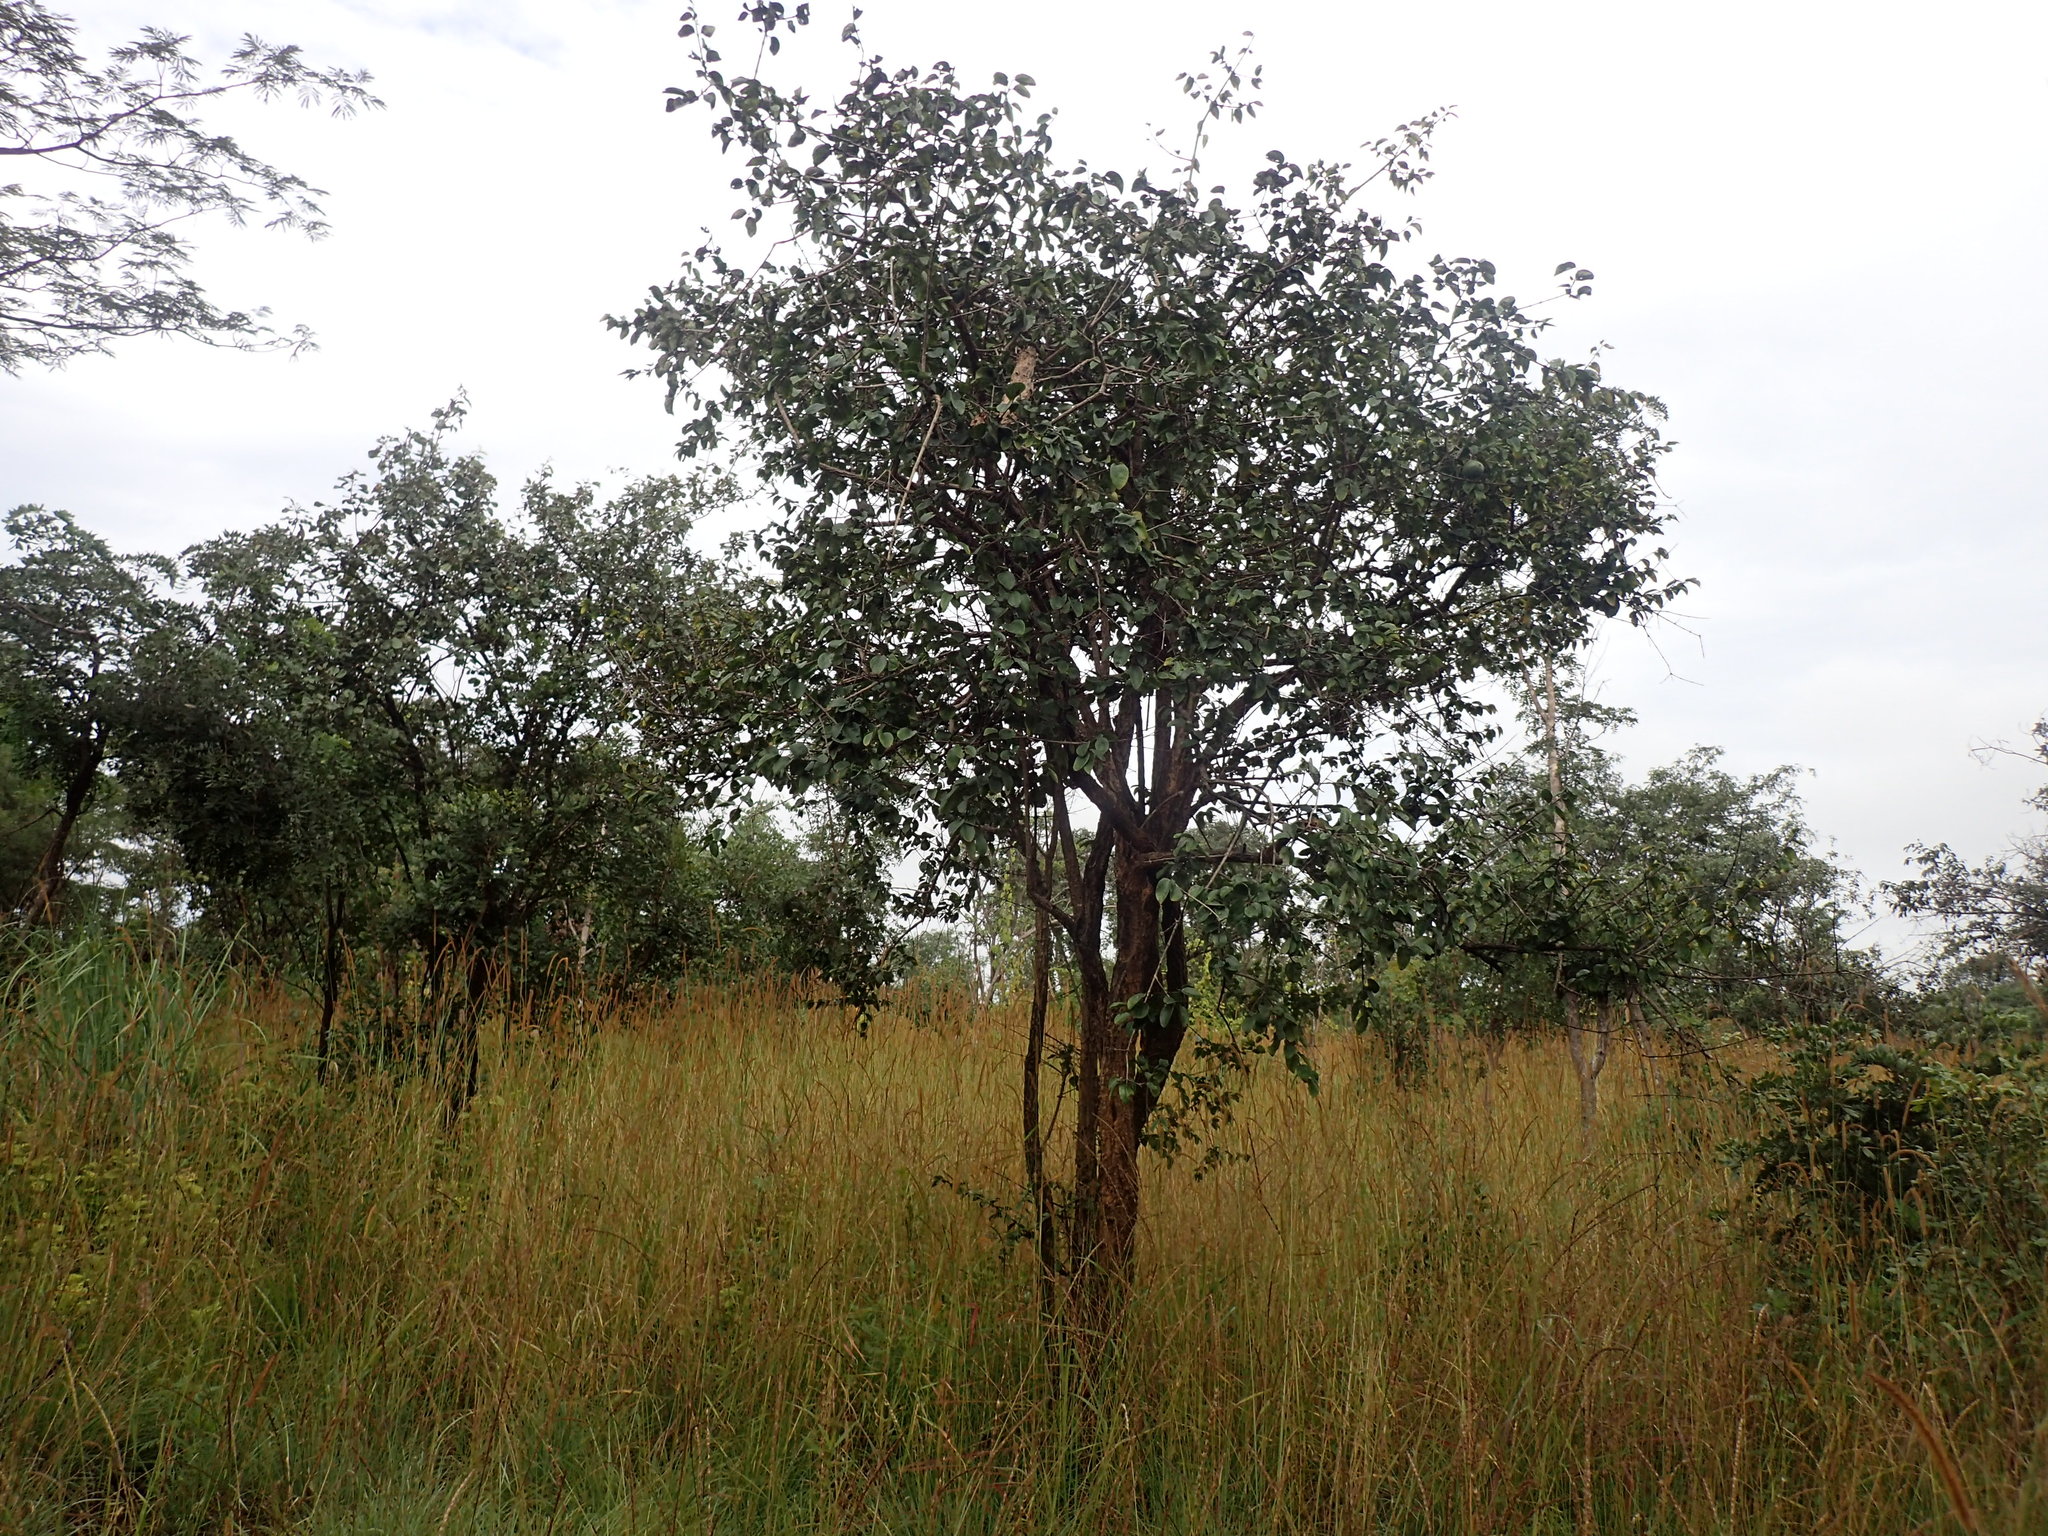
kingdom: Plantae
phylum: Tracheophyta
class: Magnoliopsida
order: Gentianales
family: Loganiaceae
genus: Strychnos
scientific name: Strychnos cocculoides
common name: Corky-bark monkey-orange
